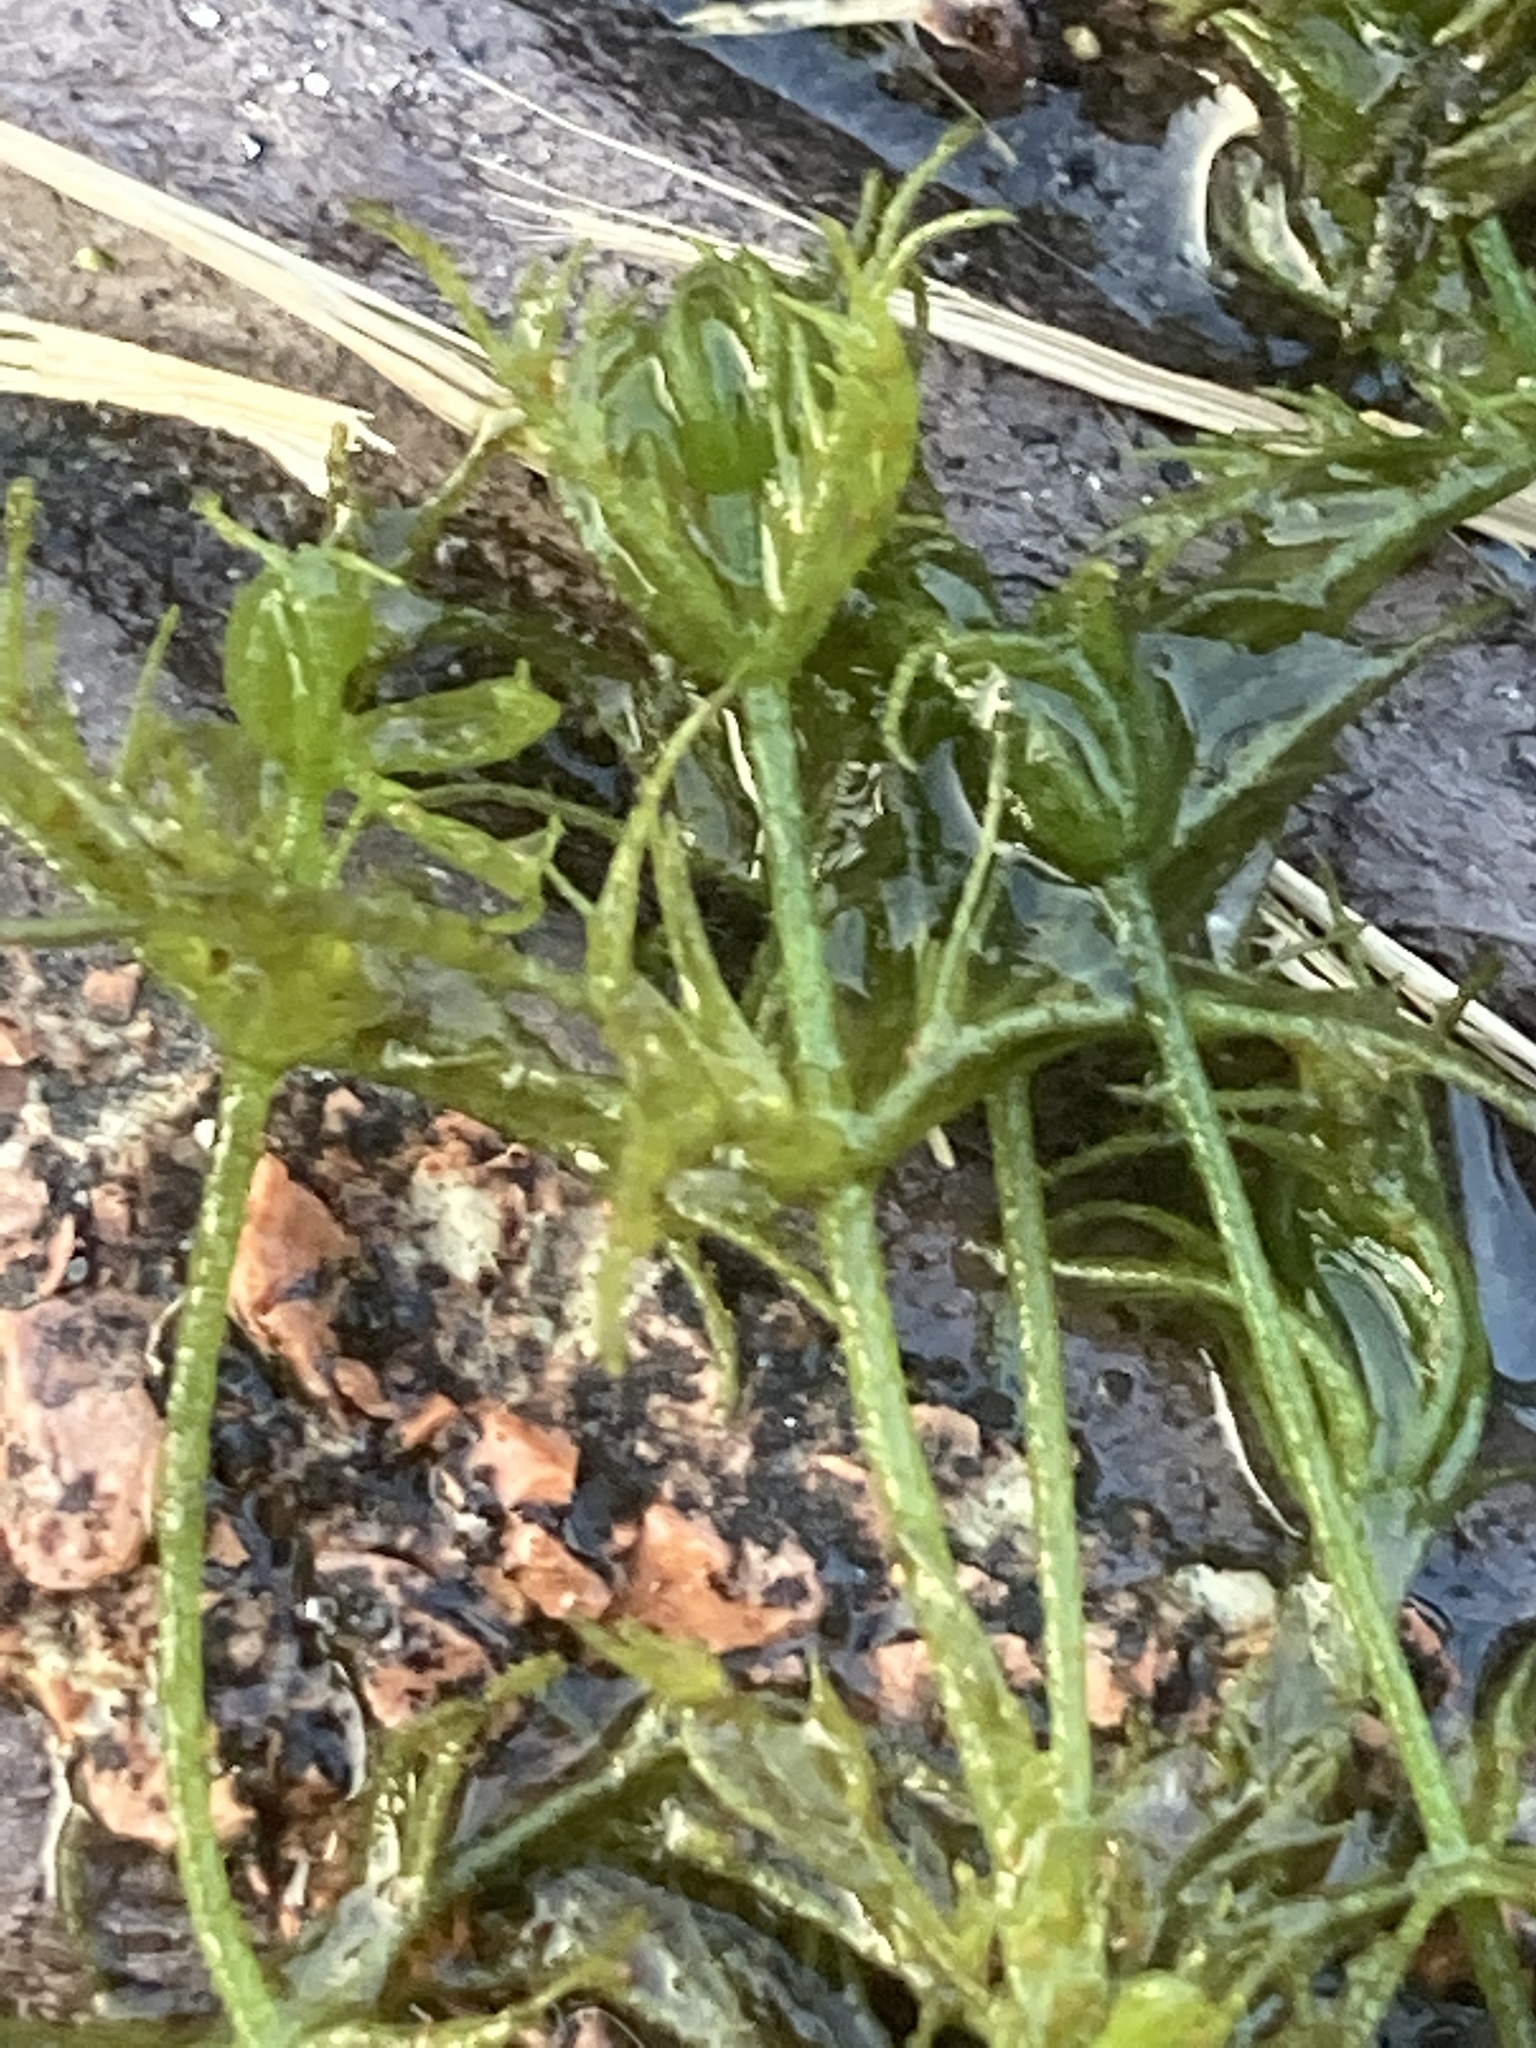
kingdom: Plantae
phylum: Charophyta
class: Charophyceae
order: Charales
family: Characeae
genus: Chara
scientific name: Chara vulgaris
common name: Common stonewort
